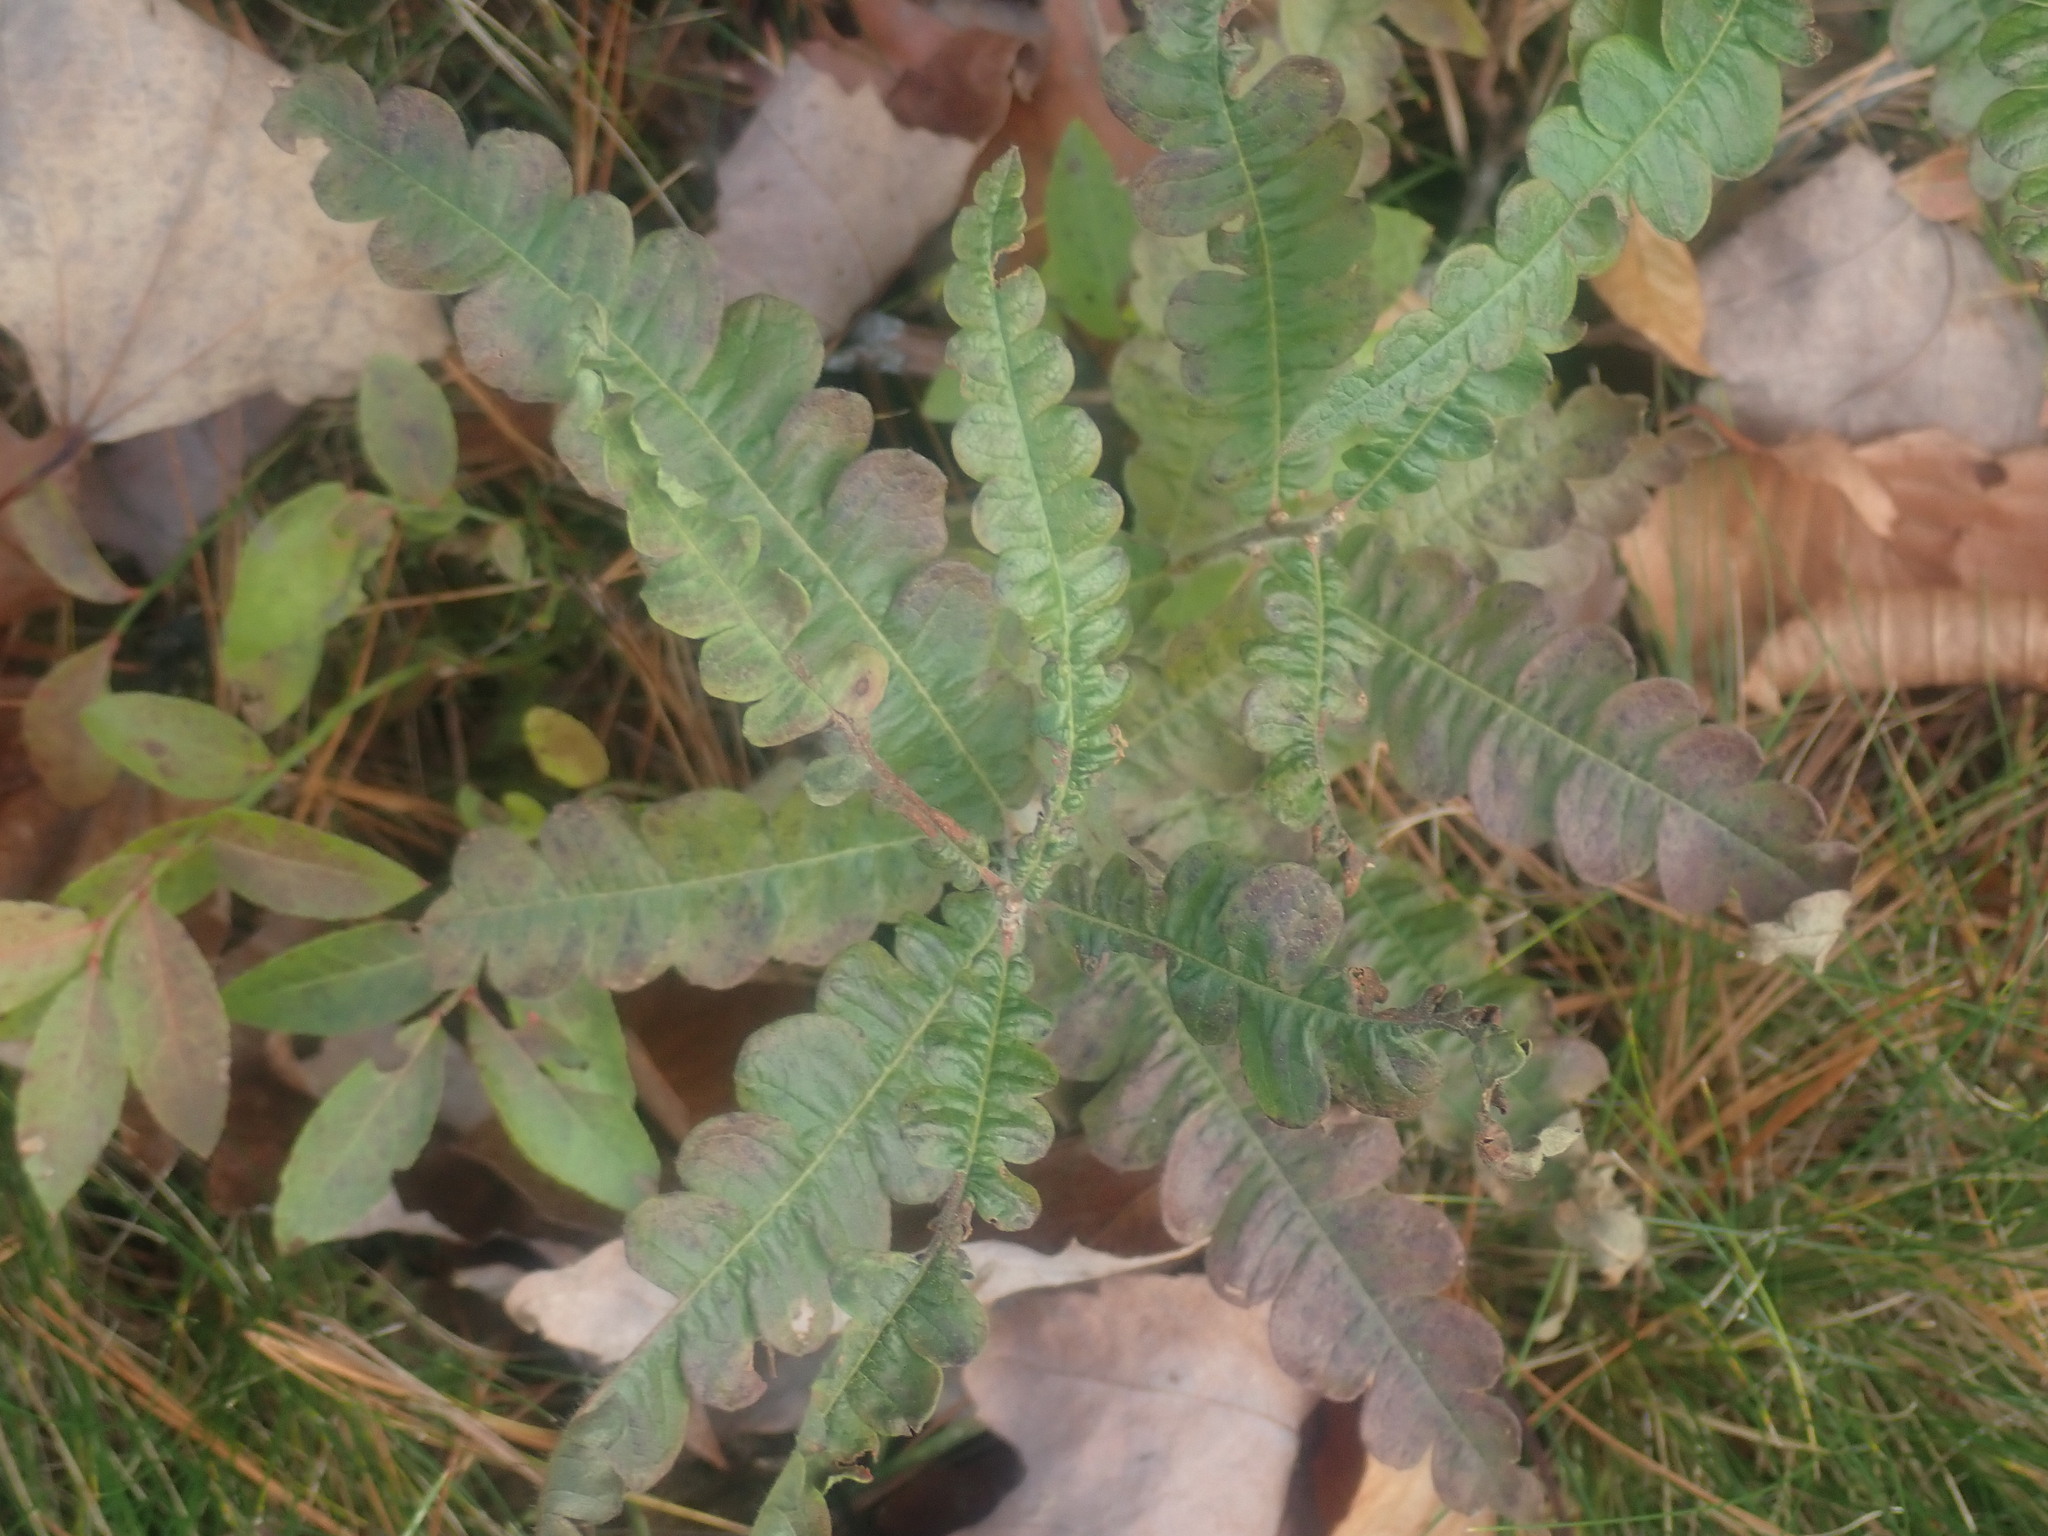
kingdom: Plantae
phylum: Tracheophyta
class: Magnoliopsida
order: Fagales
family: Myricaceae
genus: Comptonia
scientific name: Comptonia peregrina
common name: Sweet-fern
